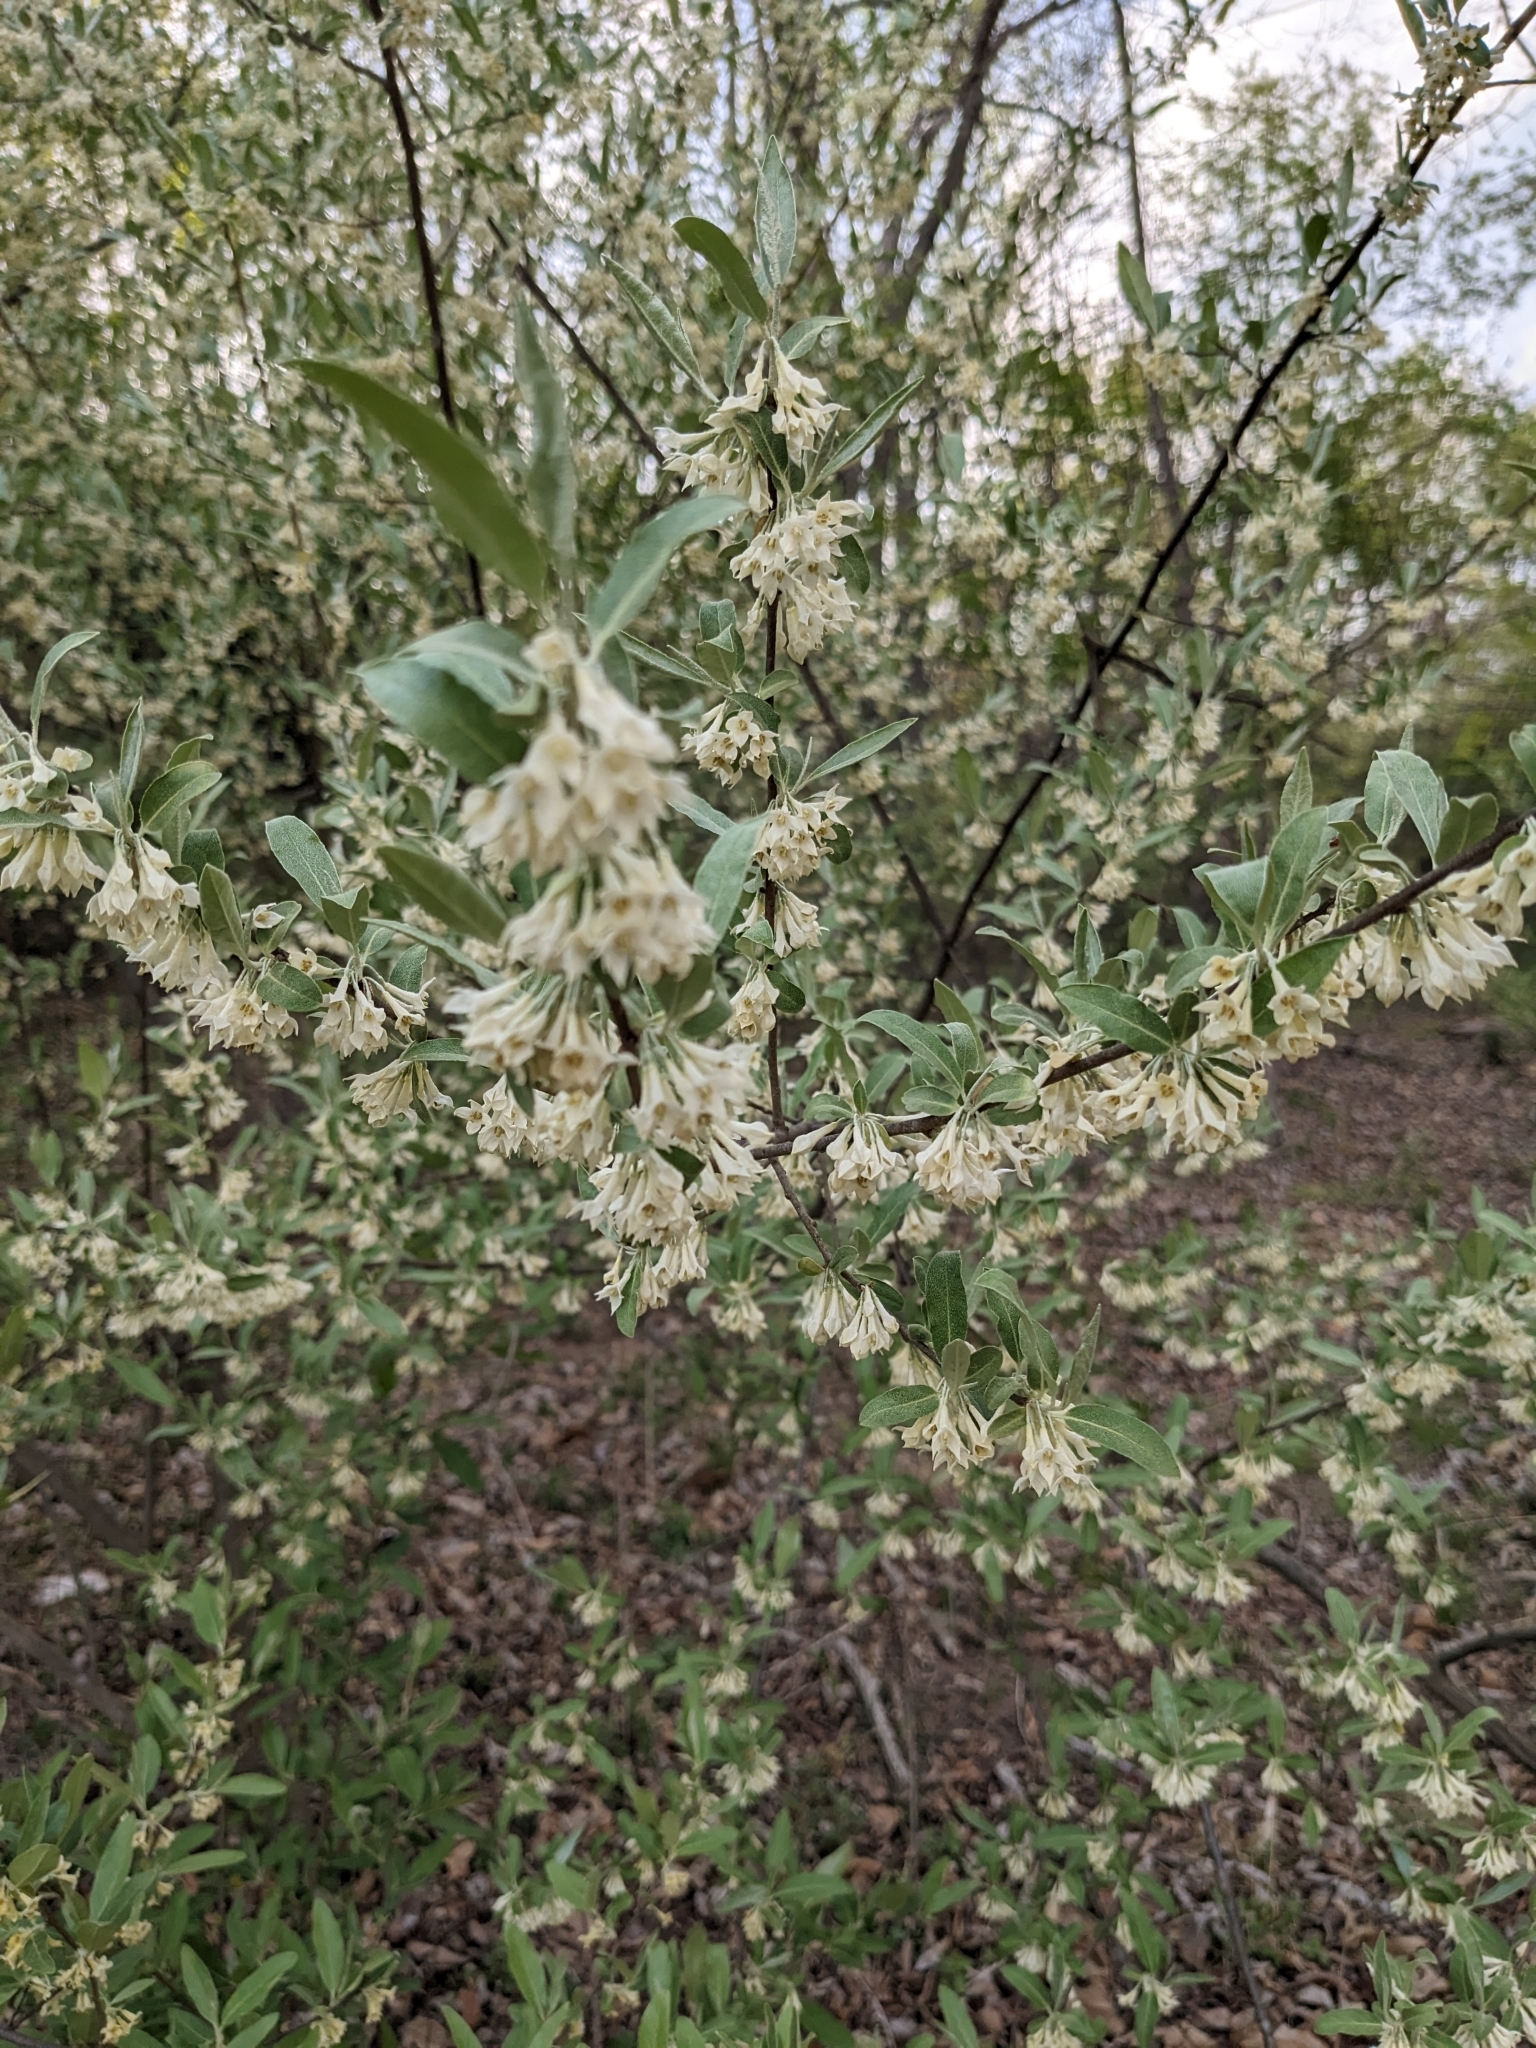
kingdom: Plantae
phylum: Tracheophyta
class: Magnoliopsida
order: Rosales
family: Elaeagnaceae
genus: Elaeagnus
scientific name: Elaeagnus umbellata
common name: Autumn olive
